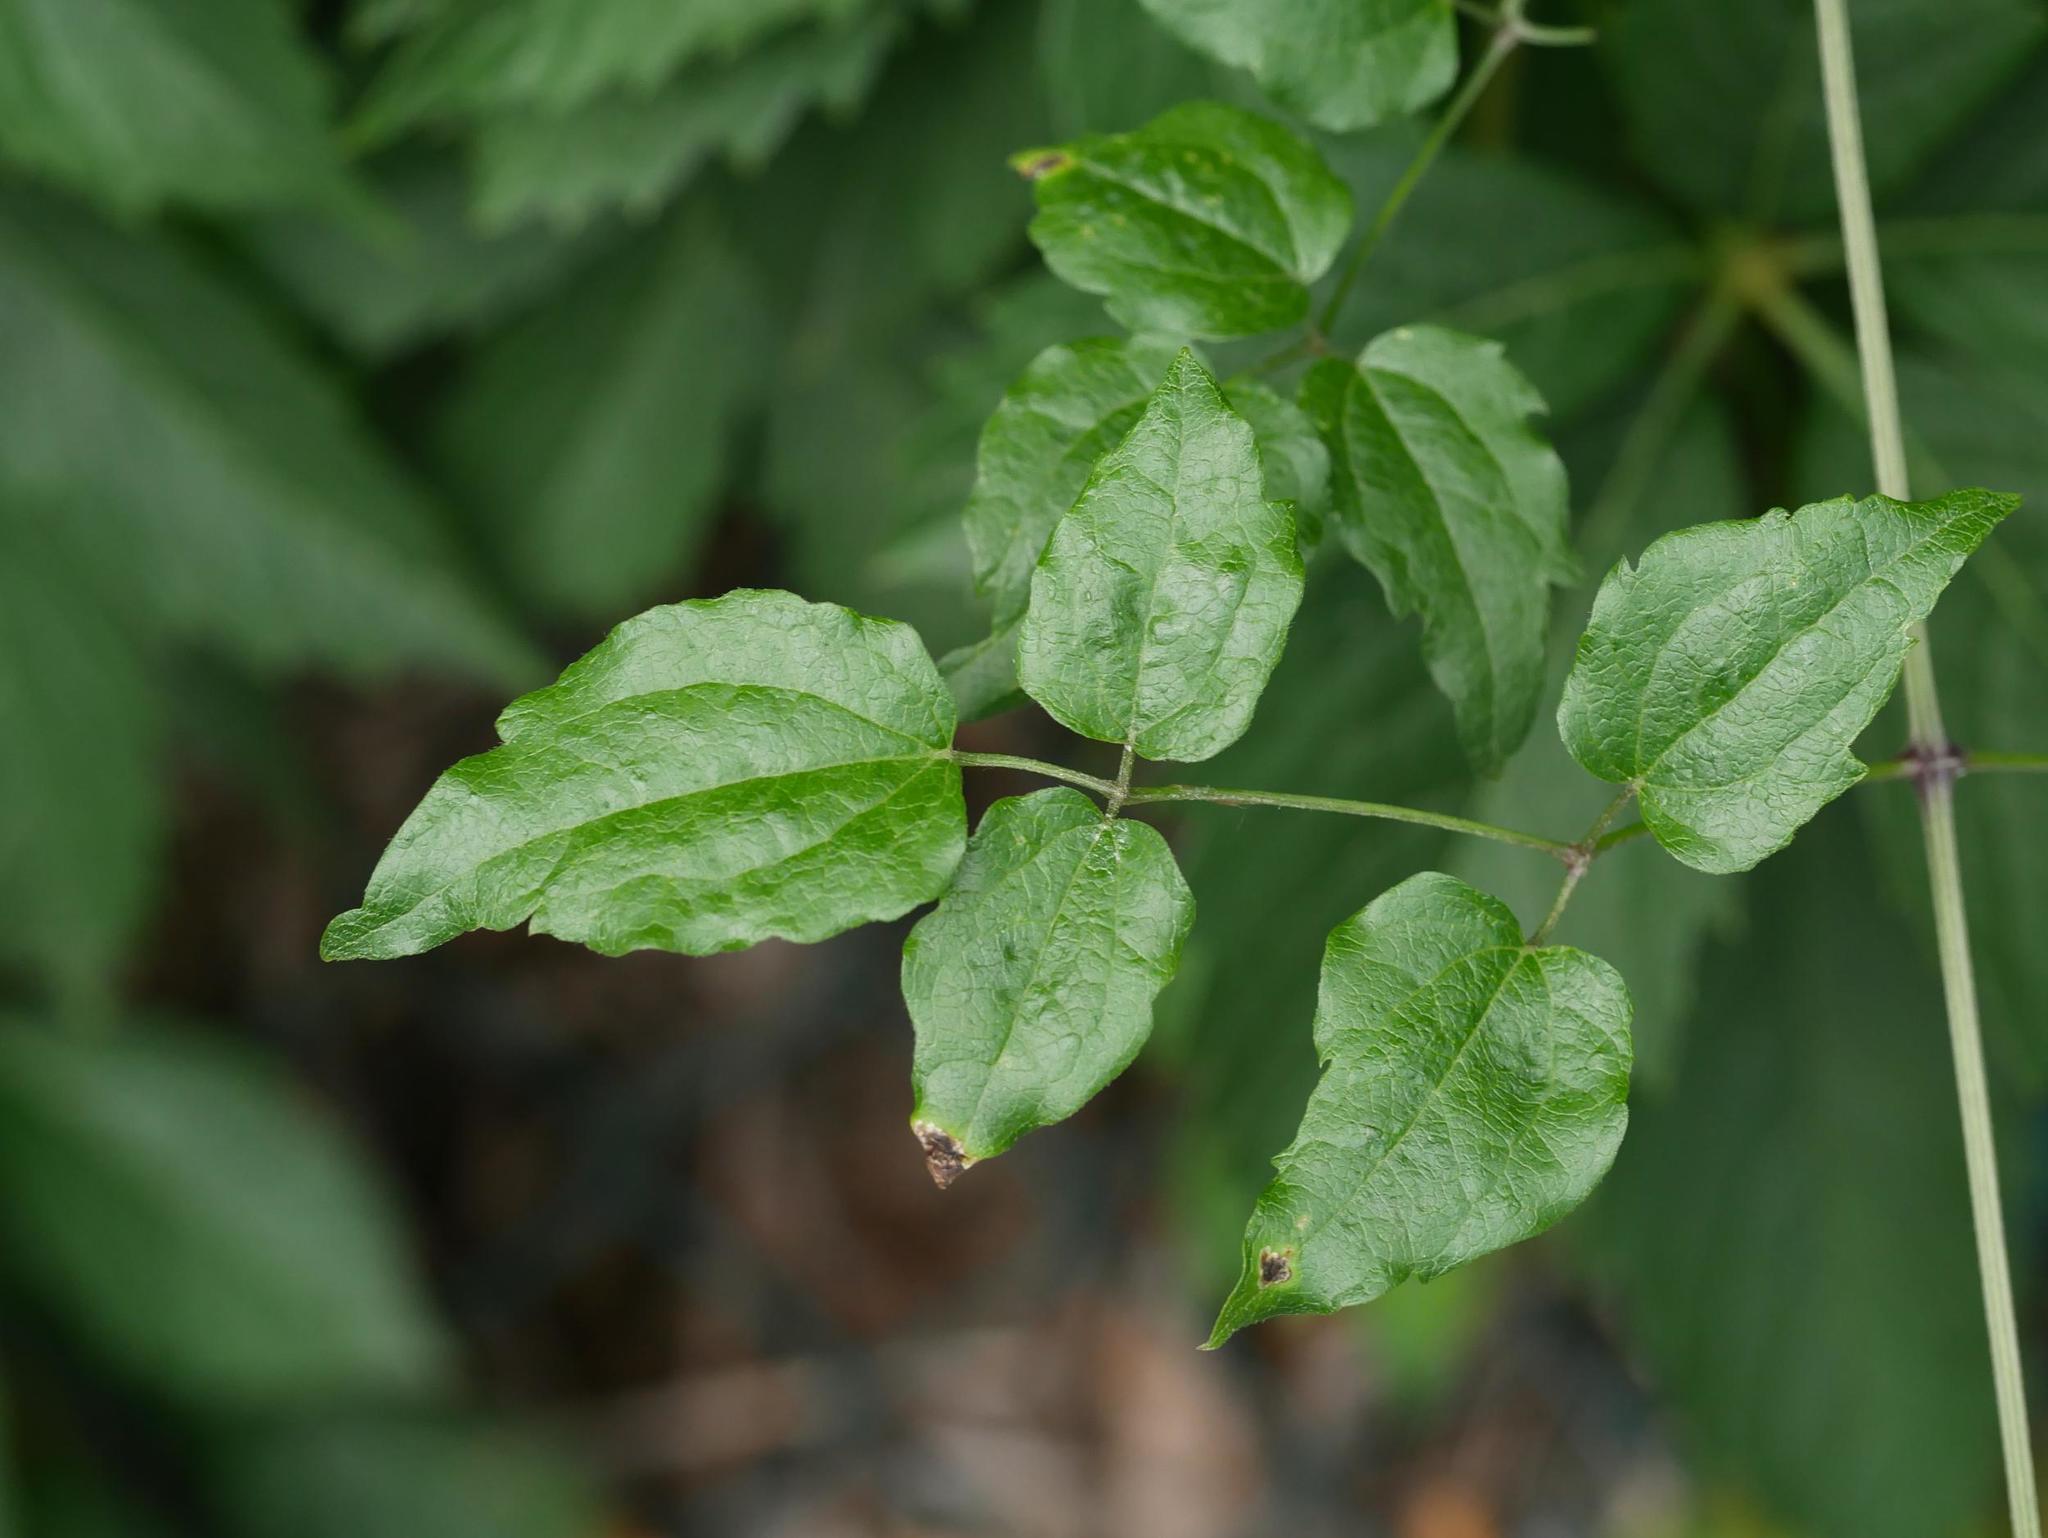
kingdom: Plantae
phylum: Tracheophyta
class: Magnoliopsida
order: Ranunculales
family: Ranunculaceae
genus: Clematis
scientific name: Clematis vitalba
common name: Evergreen clematis
